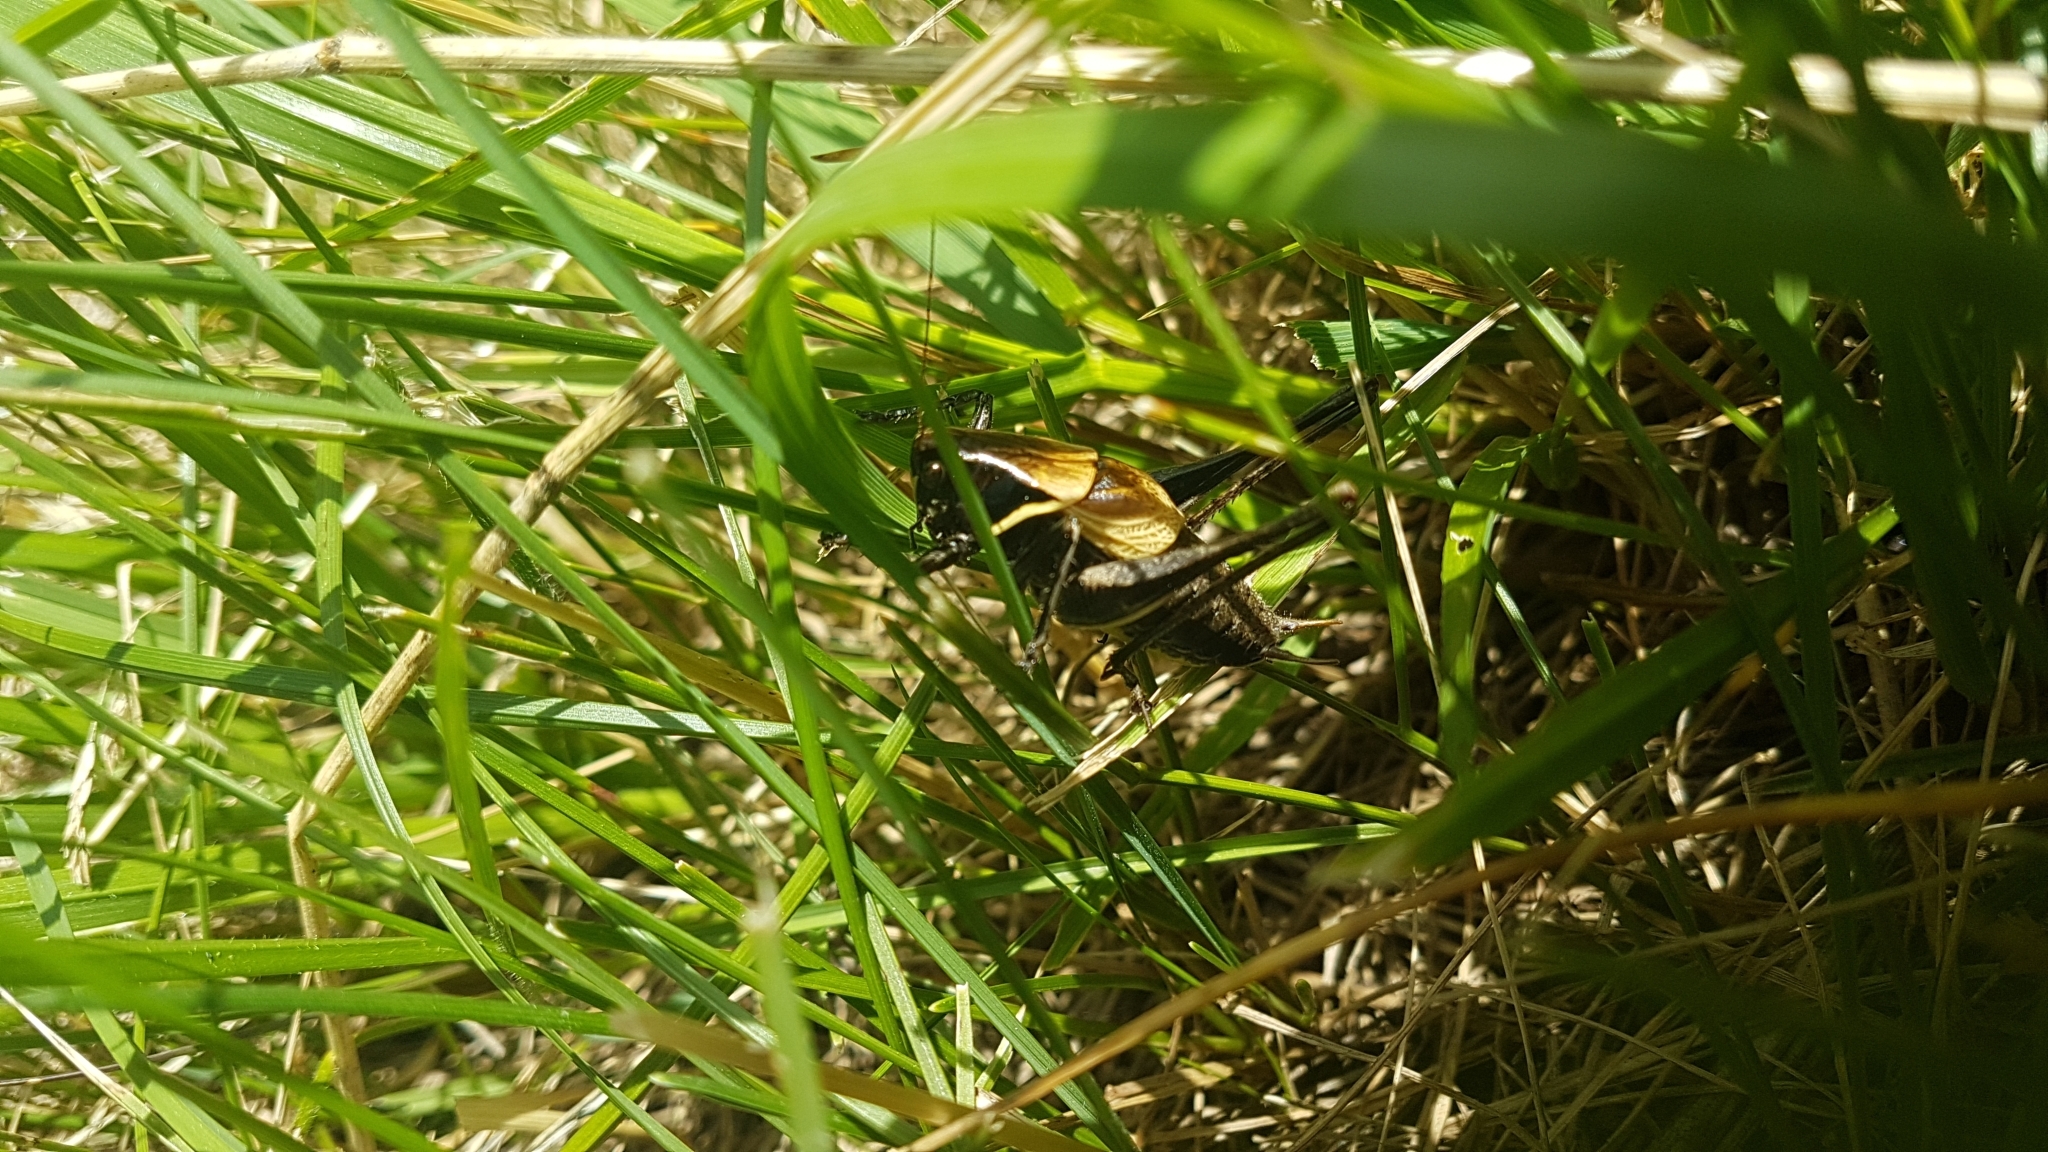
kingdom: Animalia
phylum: Arthropoda
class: Insecta
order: Orthoptera
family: Tettigoniidae
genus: Pholidoptera
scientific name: Pholidoptera aptera
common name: Alpine dark bush-cricket
